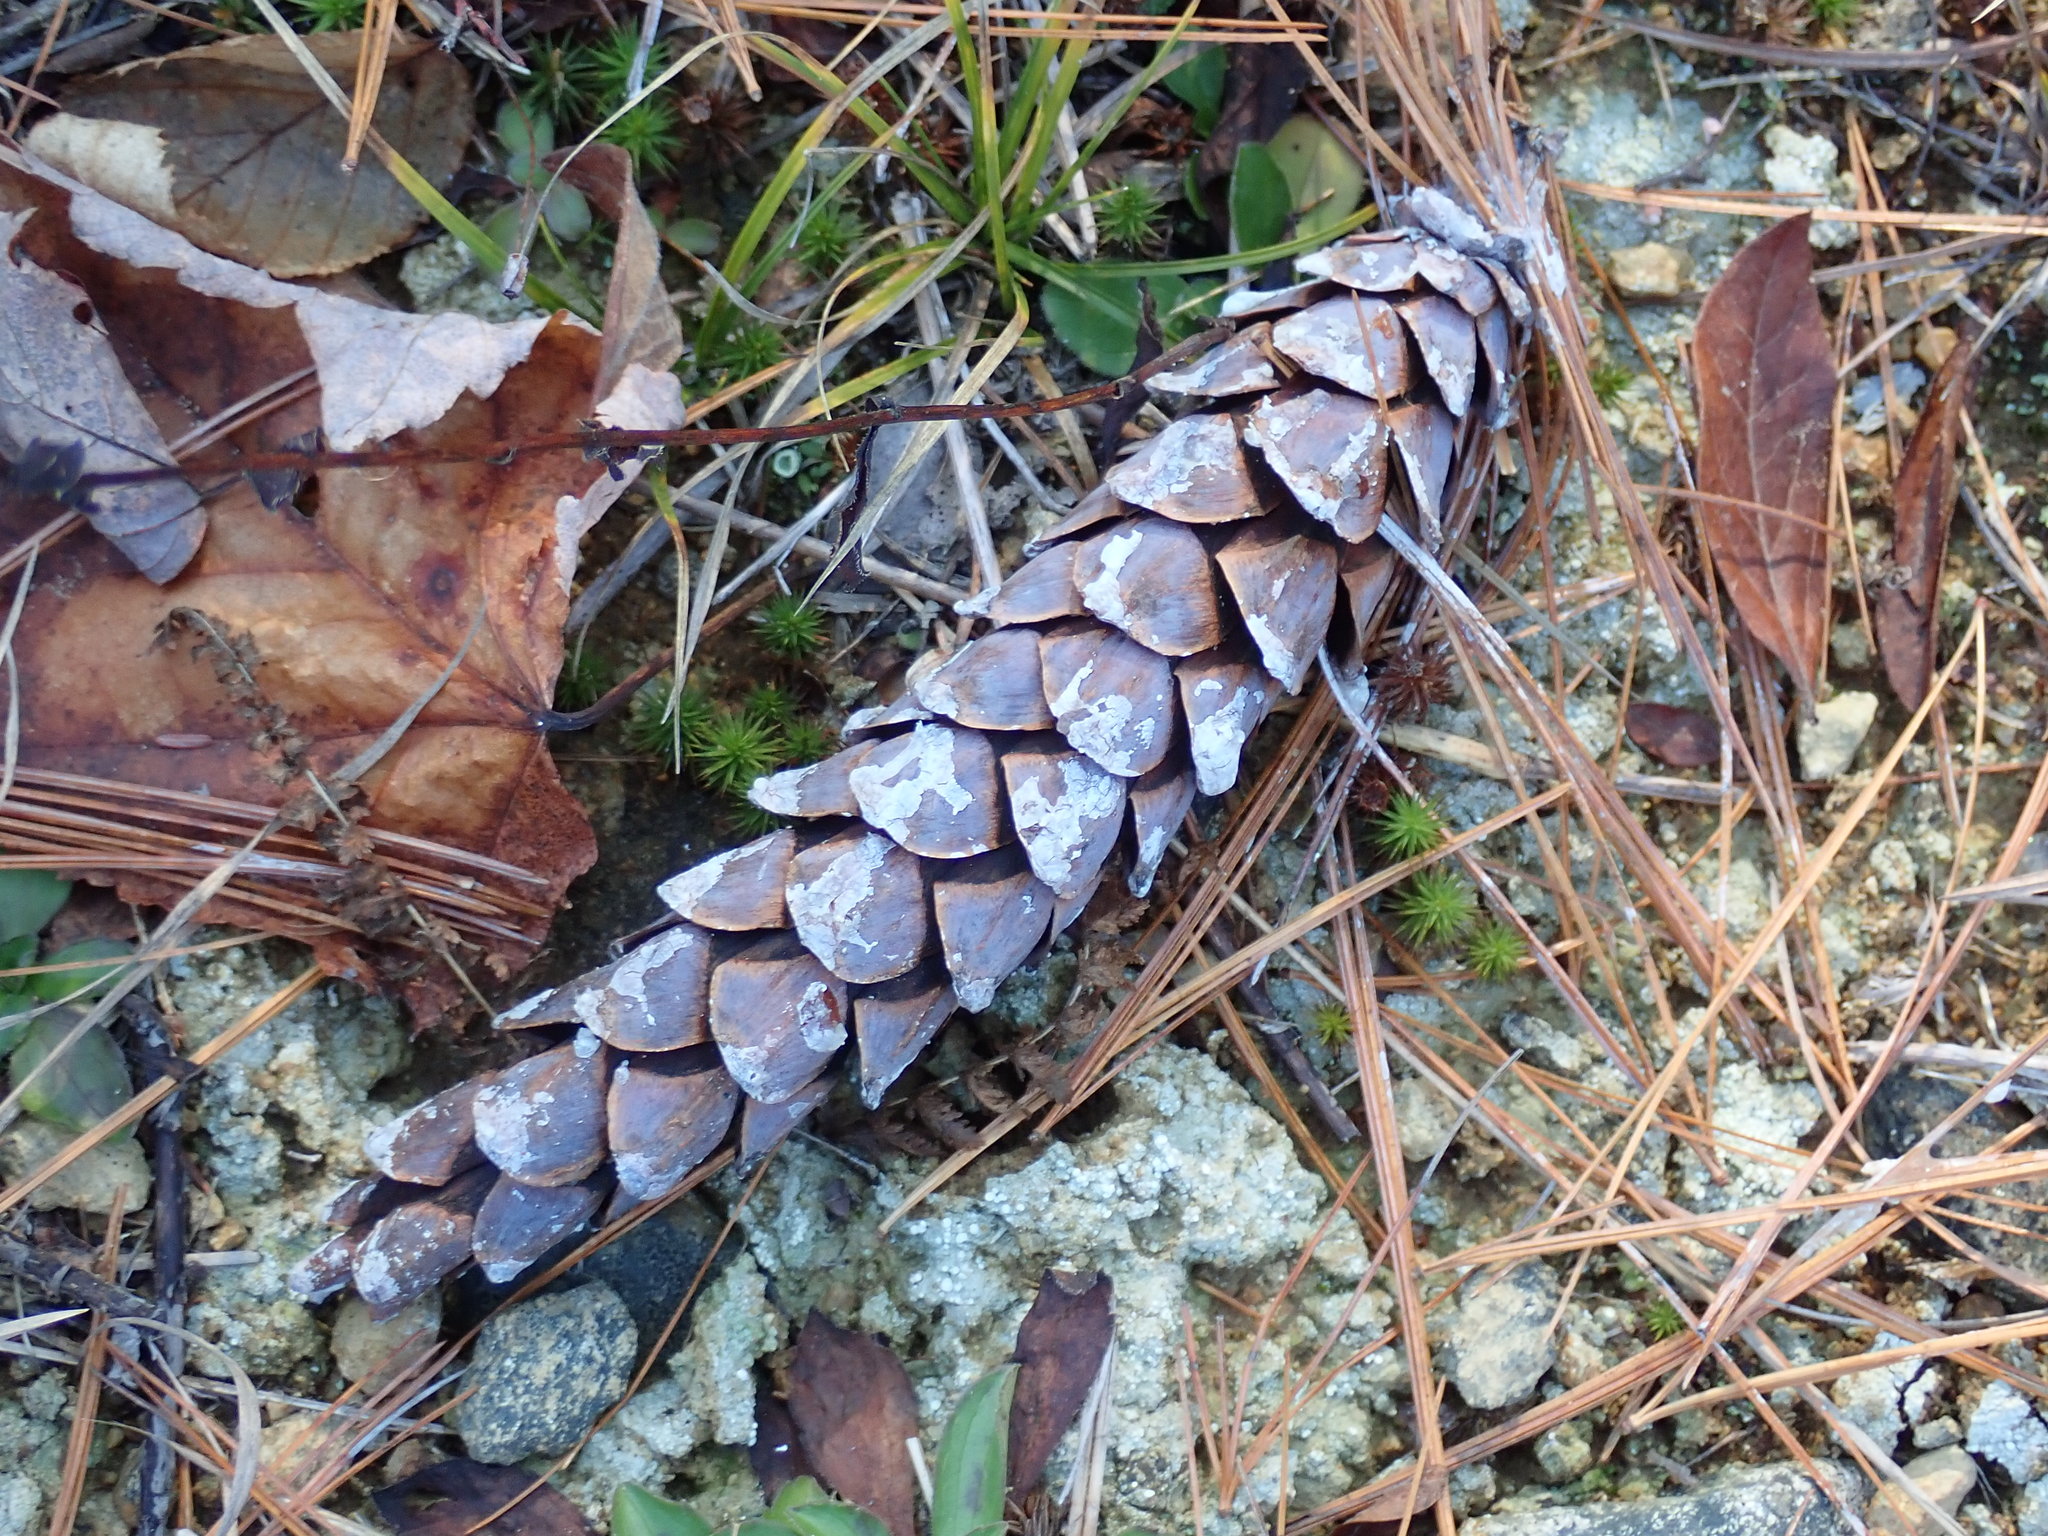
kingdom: Plantae
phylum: Tracheophyta
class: Pinopsida
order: Pinales
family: Pinaceae
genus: Pinus
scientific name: Pinus strobus
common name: Weymouth pine
